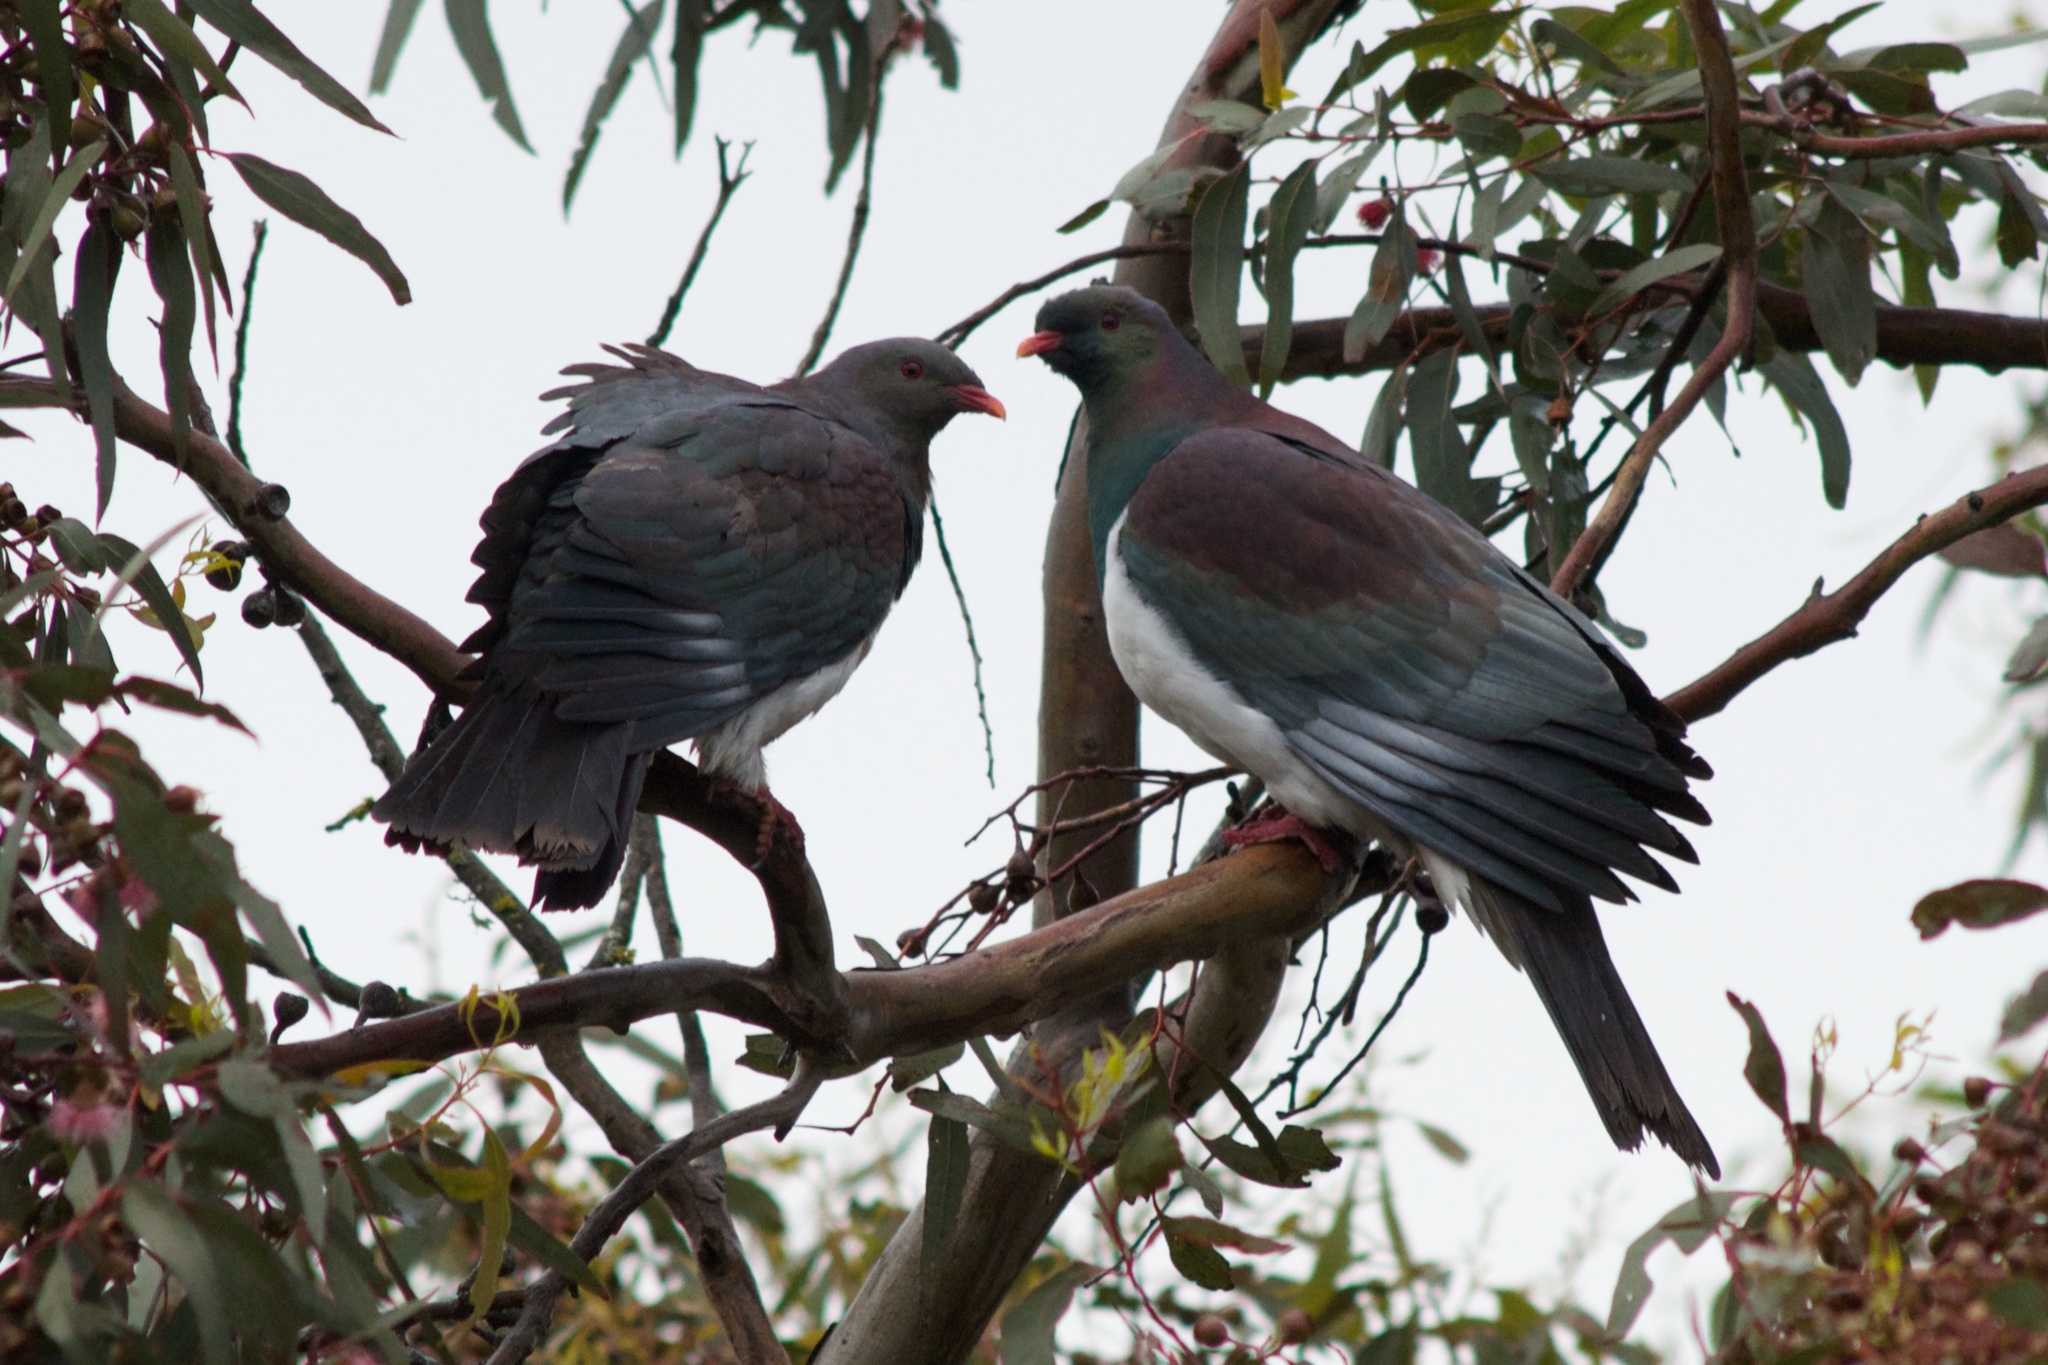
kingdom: Animalia
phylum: Chordata
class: Aves
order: Columbiformes
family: Columbidae
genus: Hemiphaga
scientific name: Hemiphaga novaeseelandiae
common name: New zealand pigeon
